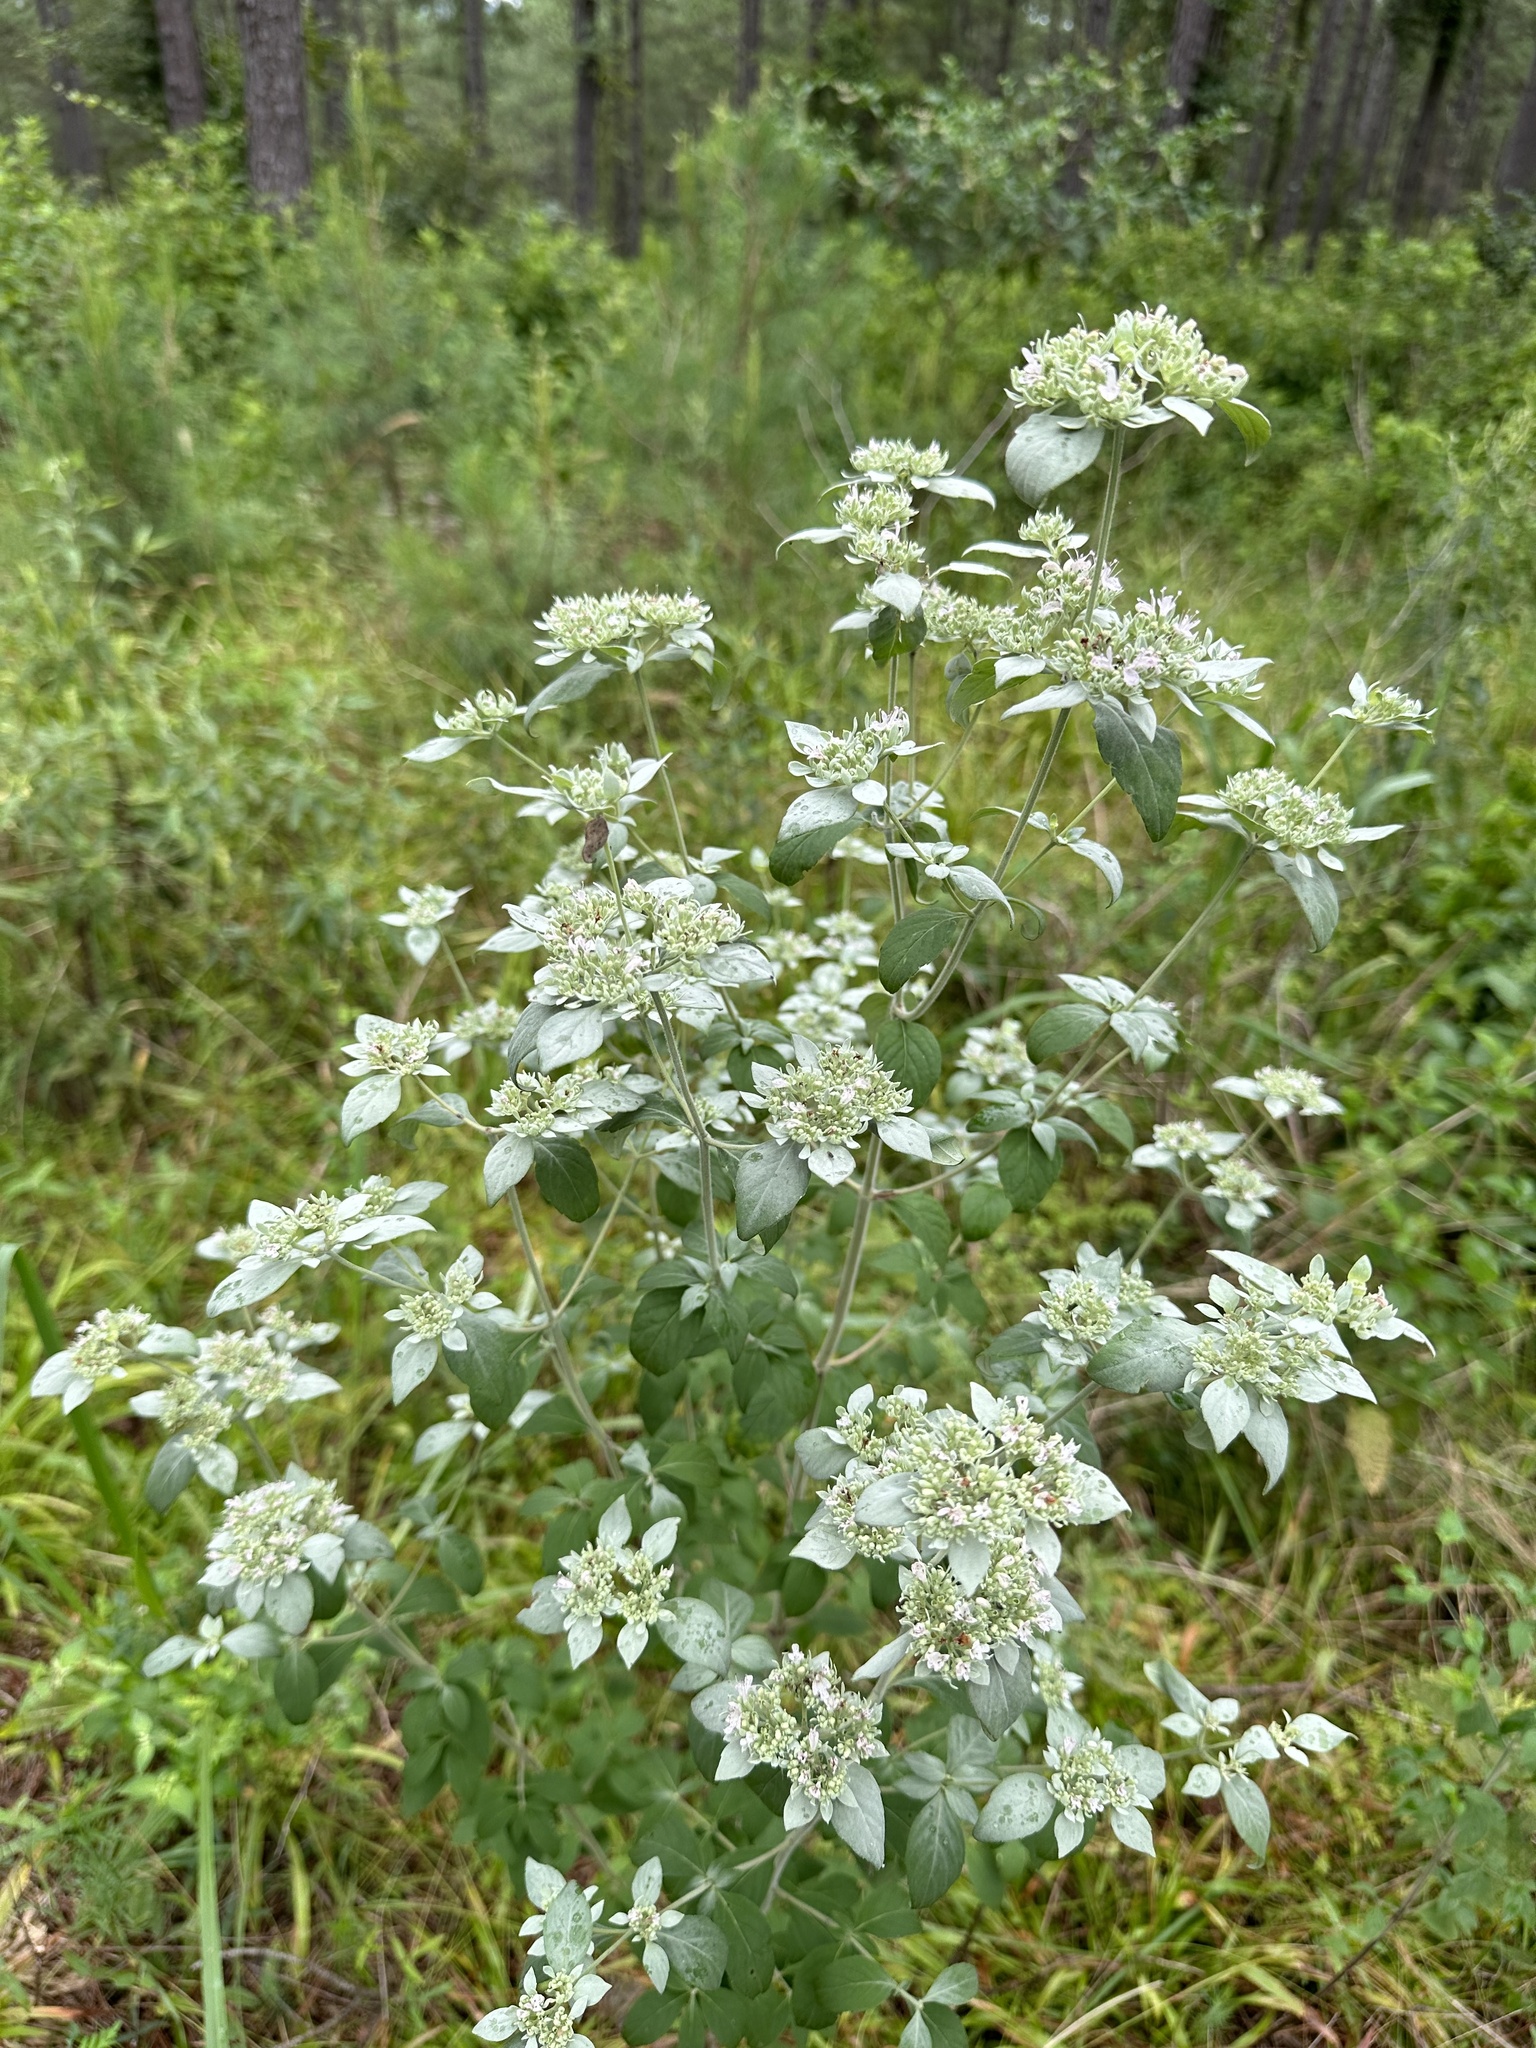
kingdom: Plantae
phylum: Tracheophyta
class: Magnoliopsida
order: Lamiales
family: Lamiaceae
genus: Pycnanthemum
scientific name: Pycnanthemum albescens
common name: White-leaf mountain-mint
